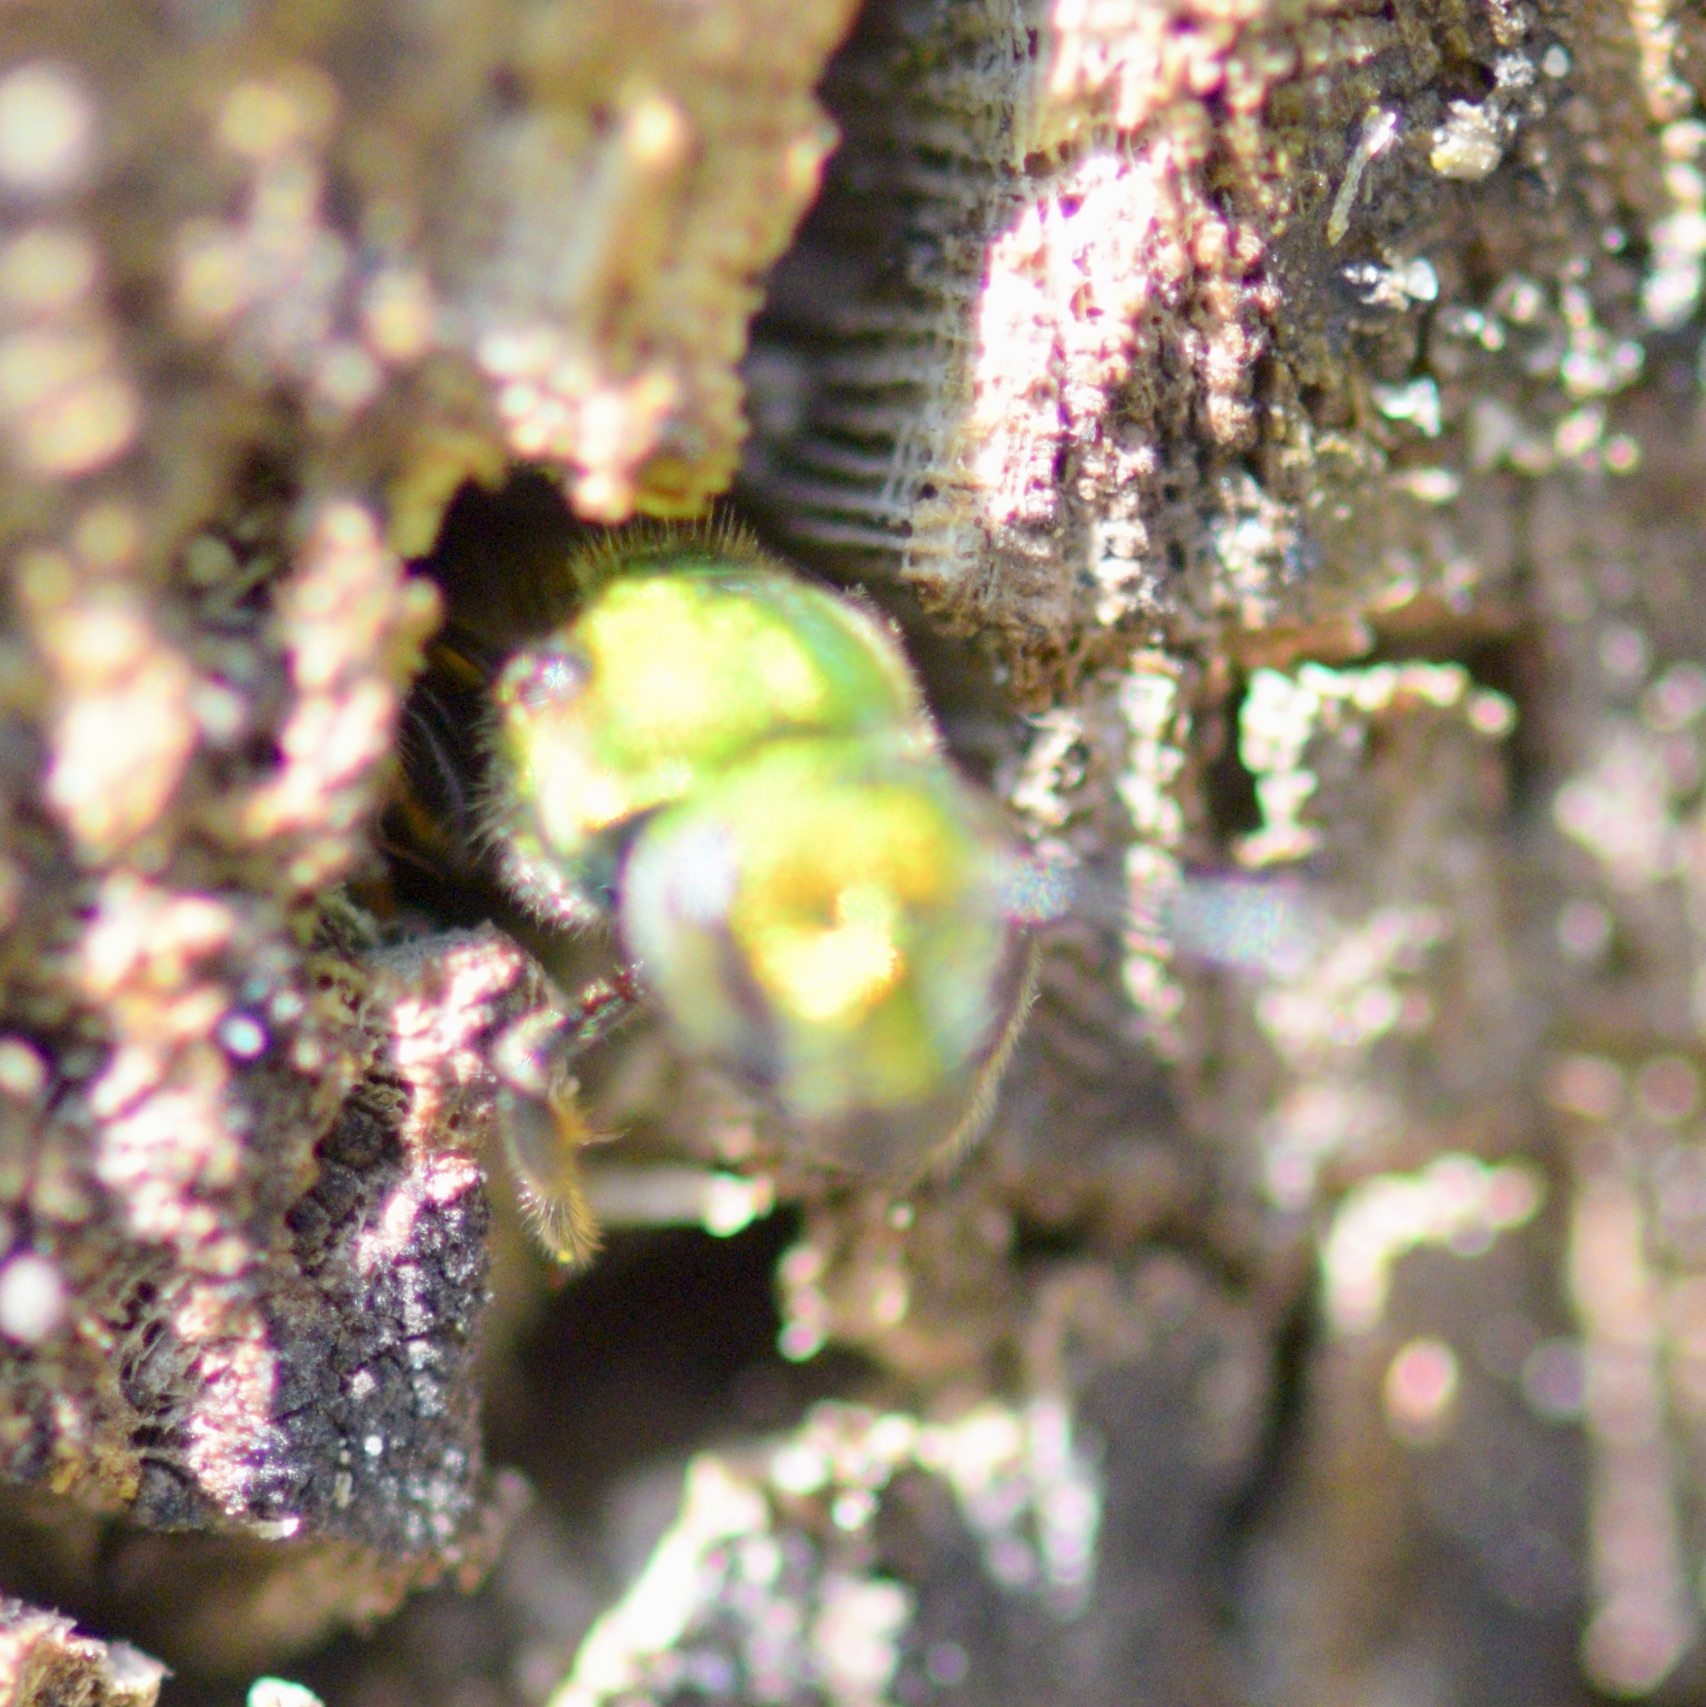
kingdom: Animalia
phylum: Arthropoda
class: Insecta
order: Hymenoptera
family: Halictidae
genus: Augochlora
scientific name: Augochlora pura
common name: Pure green sweat bee
